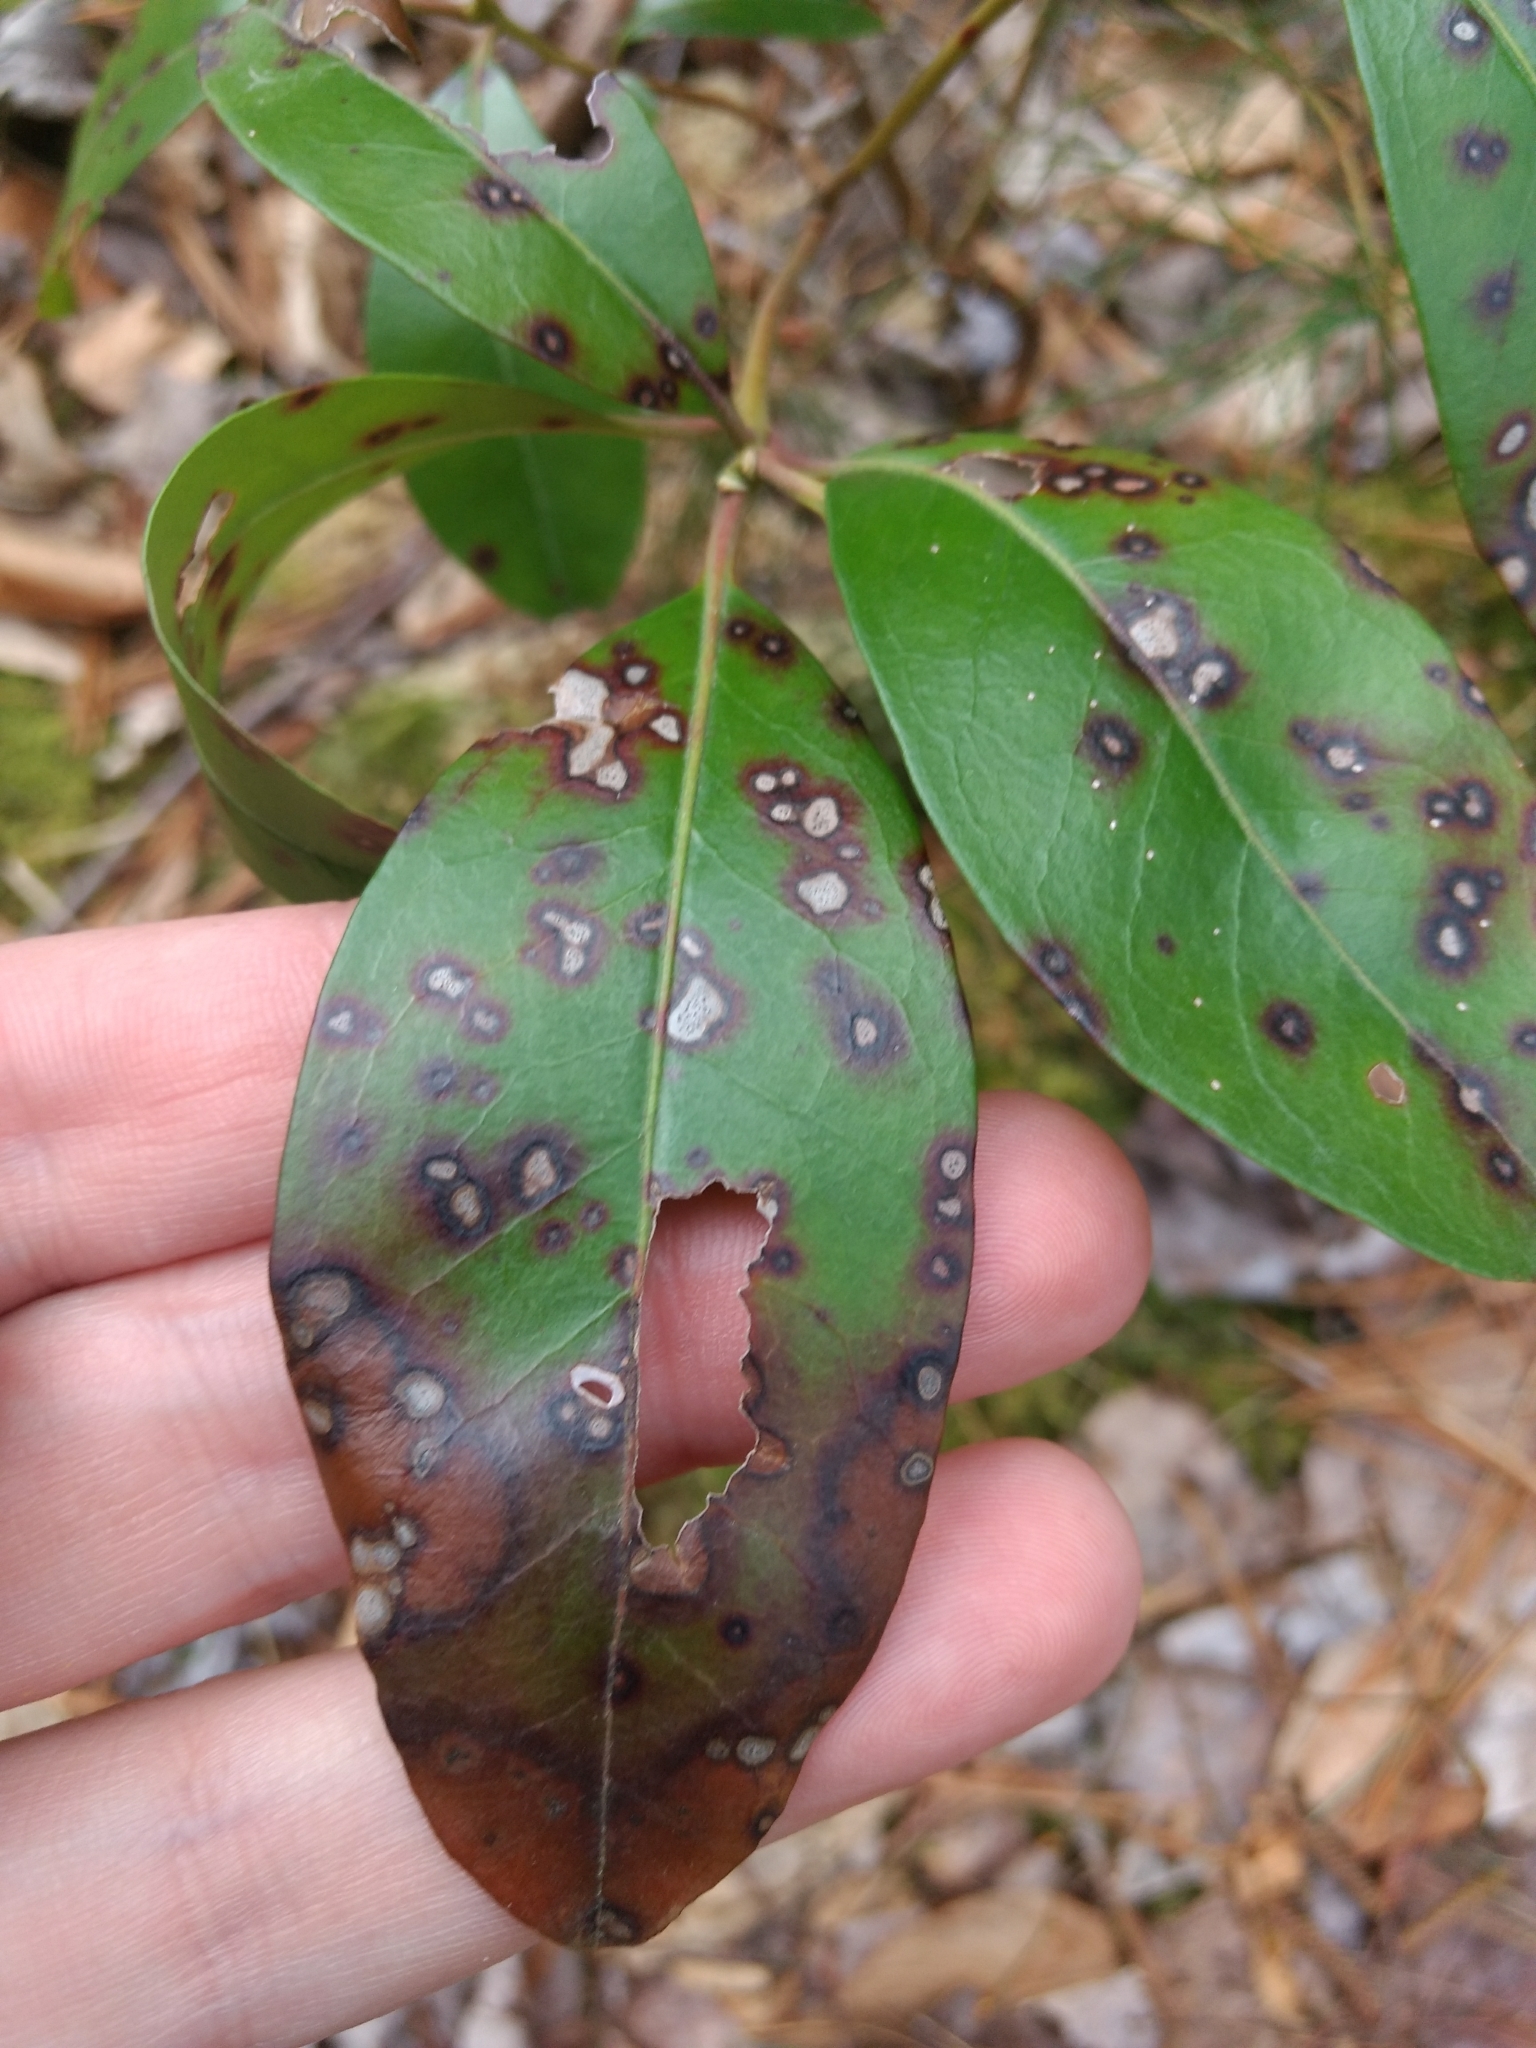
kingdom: Fungi
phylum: Ascomycota
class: Dothideomycetes
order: Mycosphaerellales
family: Mycosphaerellaceae
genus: Mycosphaerella
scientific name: Mycosphaerella colorata
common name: Mountain laurel leaf spot
